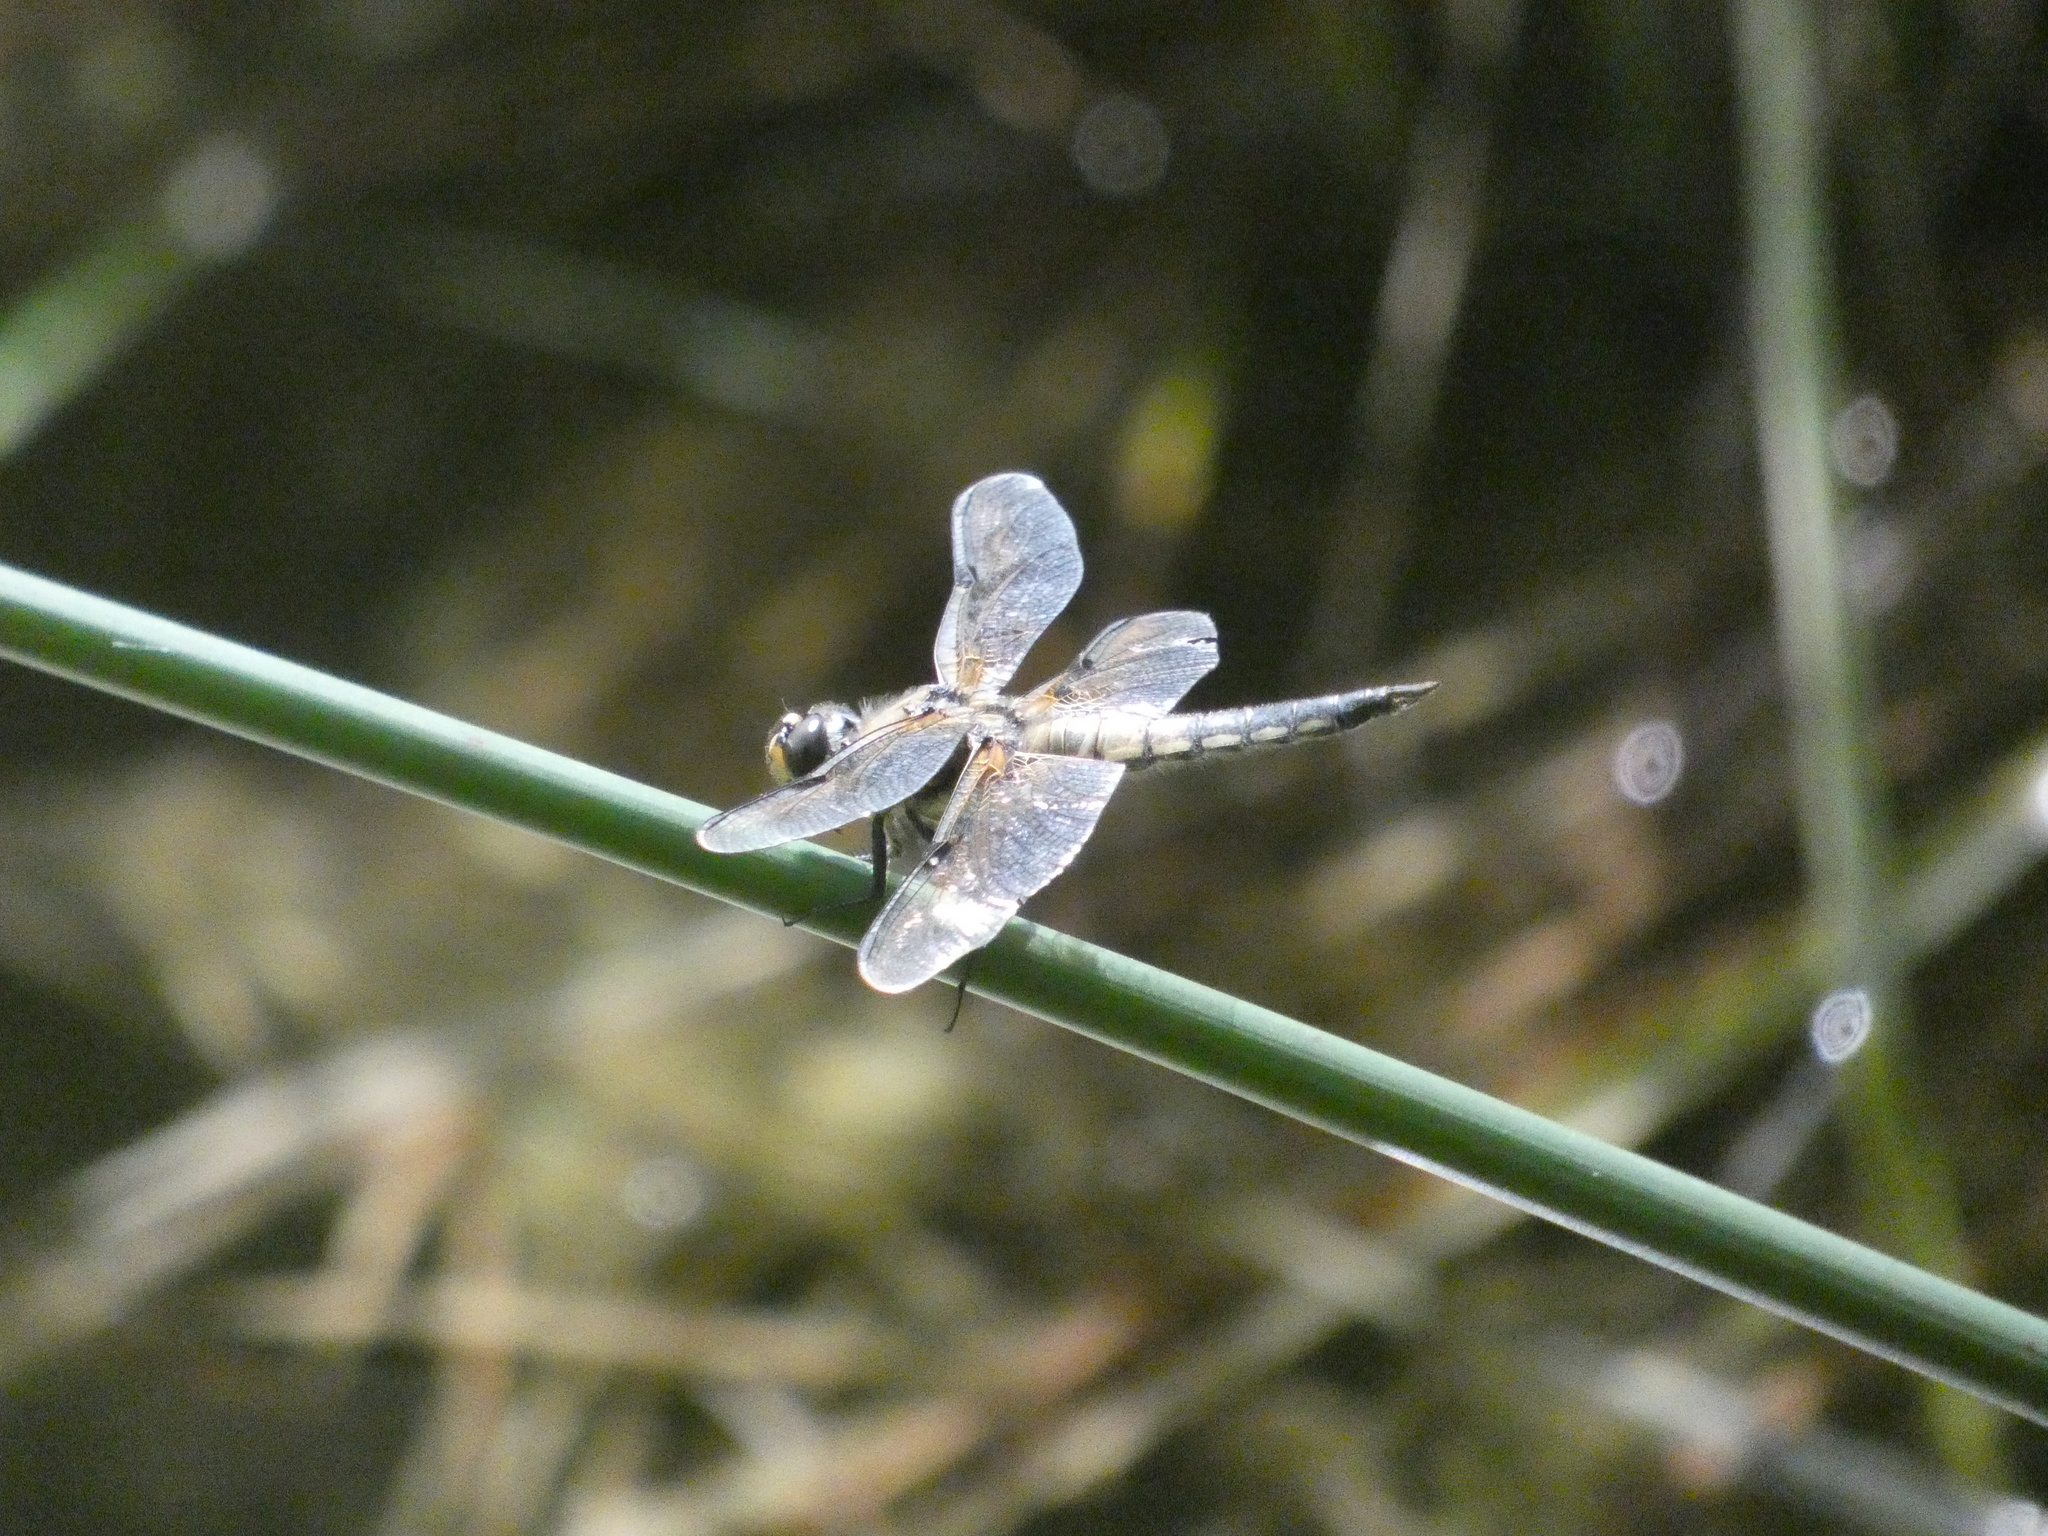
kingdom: Animalia
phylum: Arthropoda
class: Insecta
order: Odonata
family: Libellulidae
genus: Libellula
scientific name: Libellula quadrimaculata
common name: Four-spotted chaser
